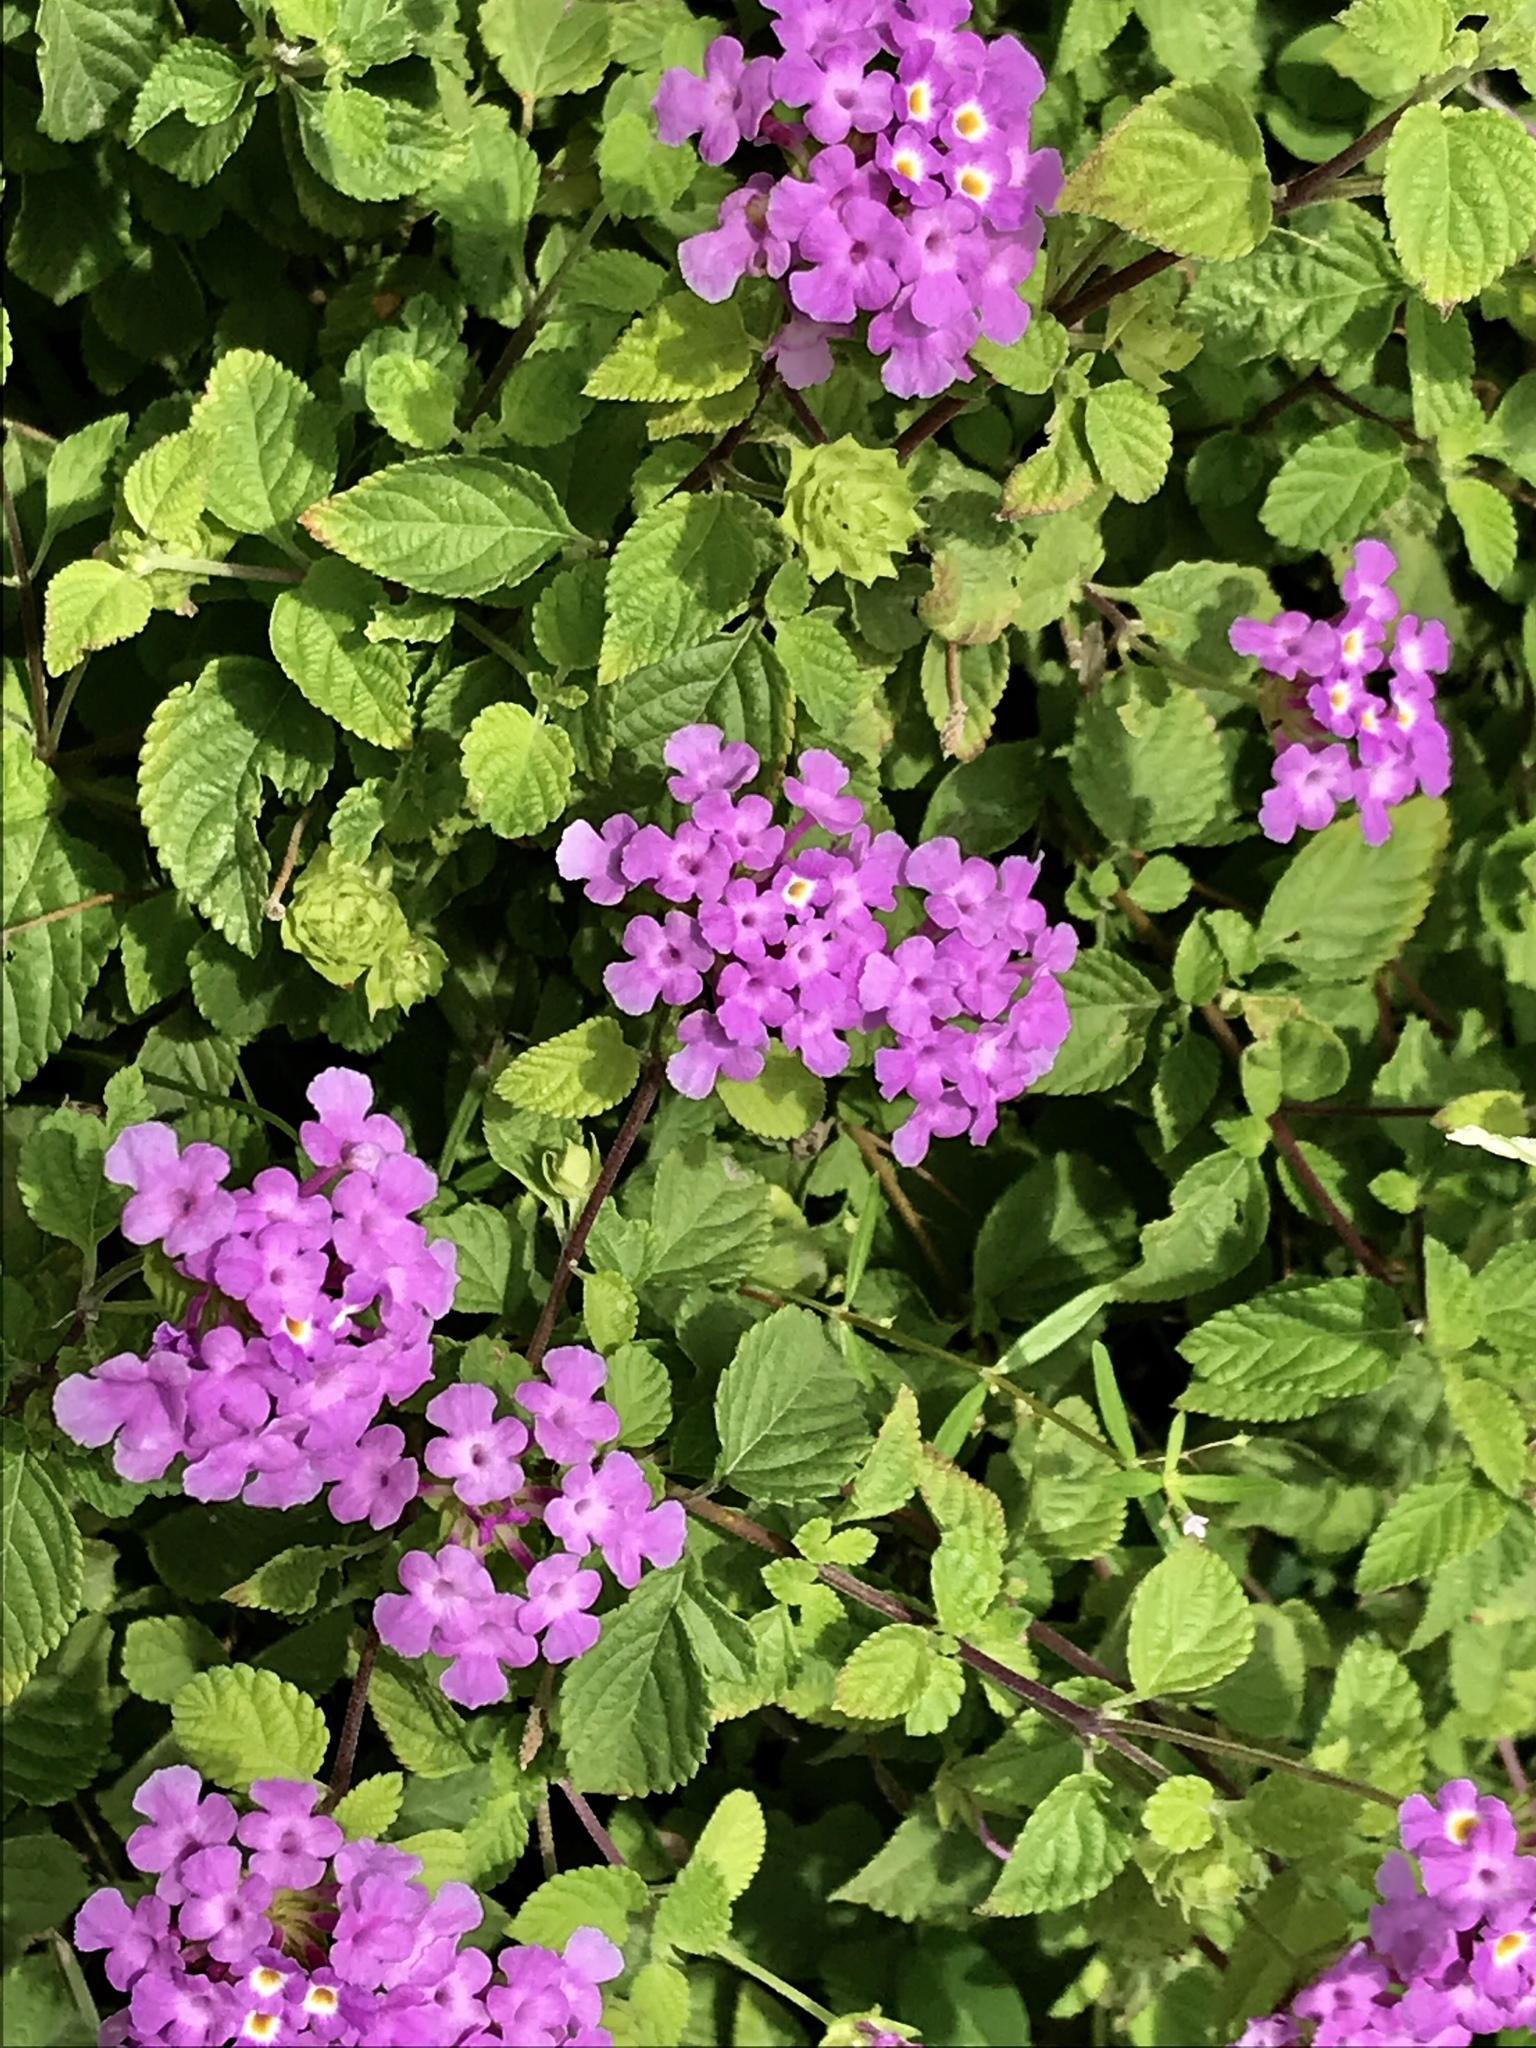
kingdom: Plantae
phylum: Tracheophyta
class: Magnoliopsida
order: Lamiales
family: Verbenaceae
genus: Lantana
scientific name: Lantana camara
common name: Lantana
